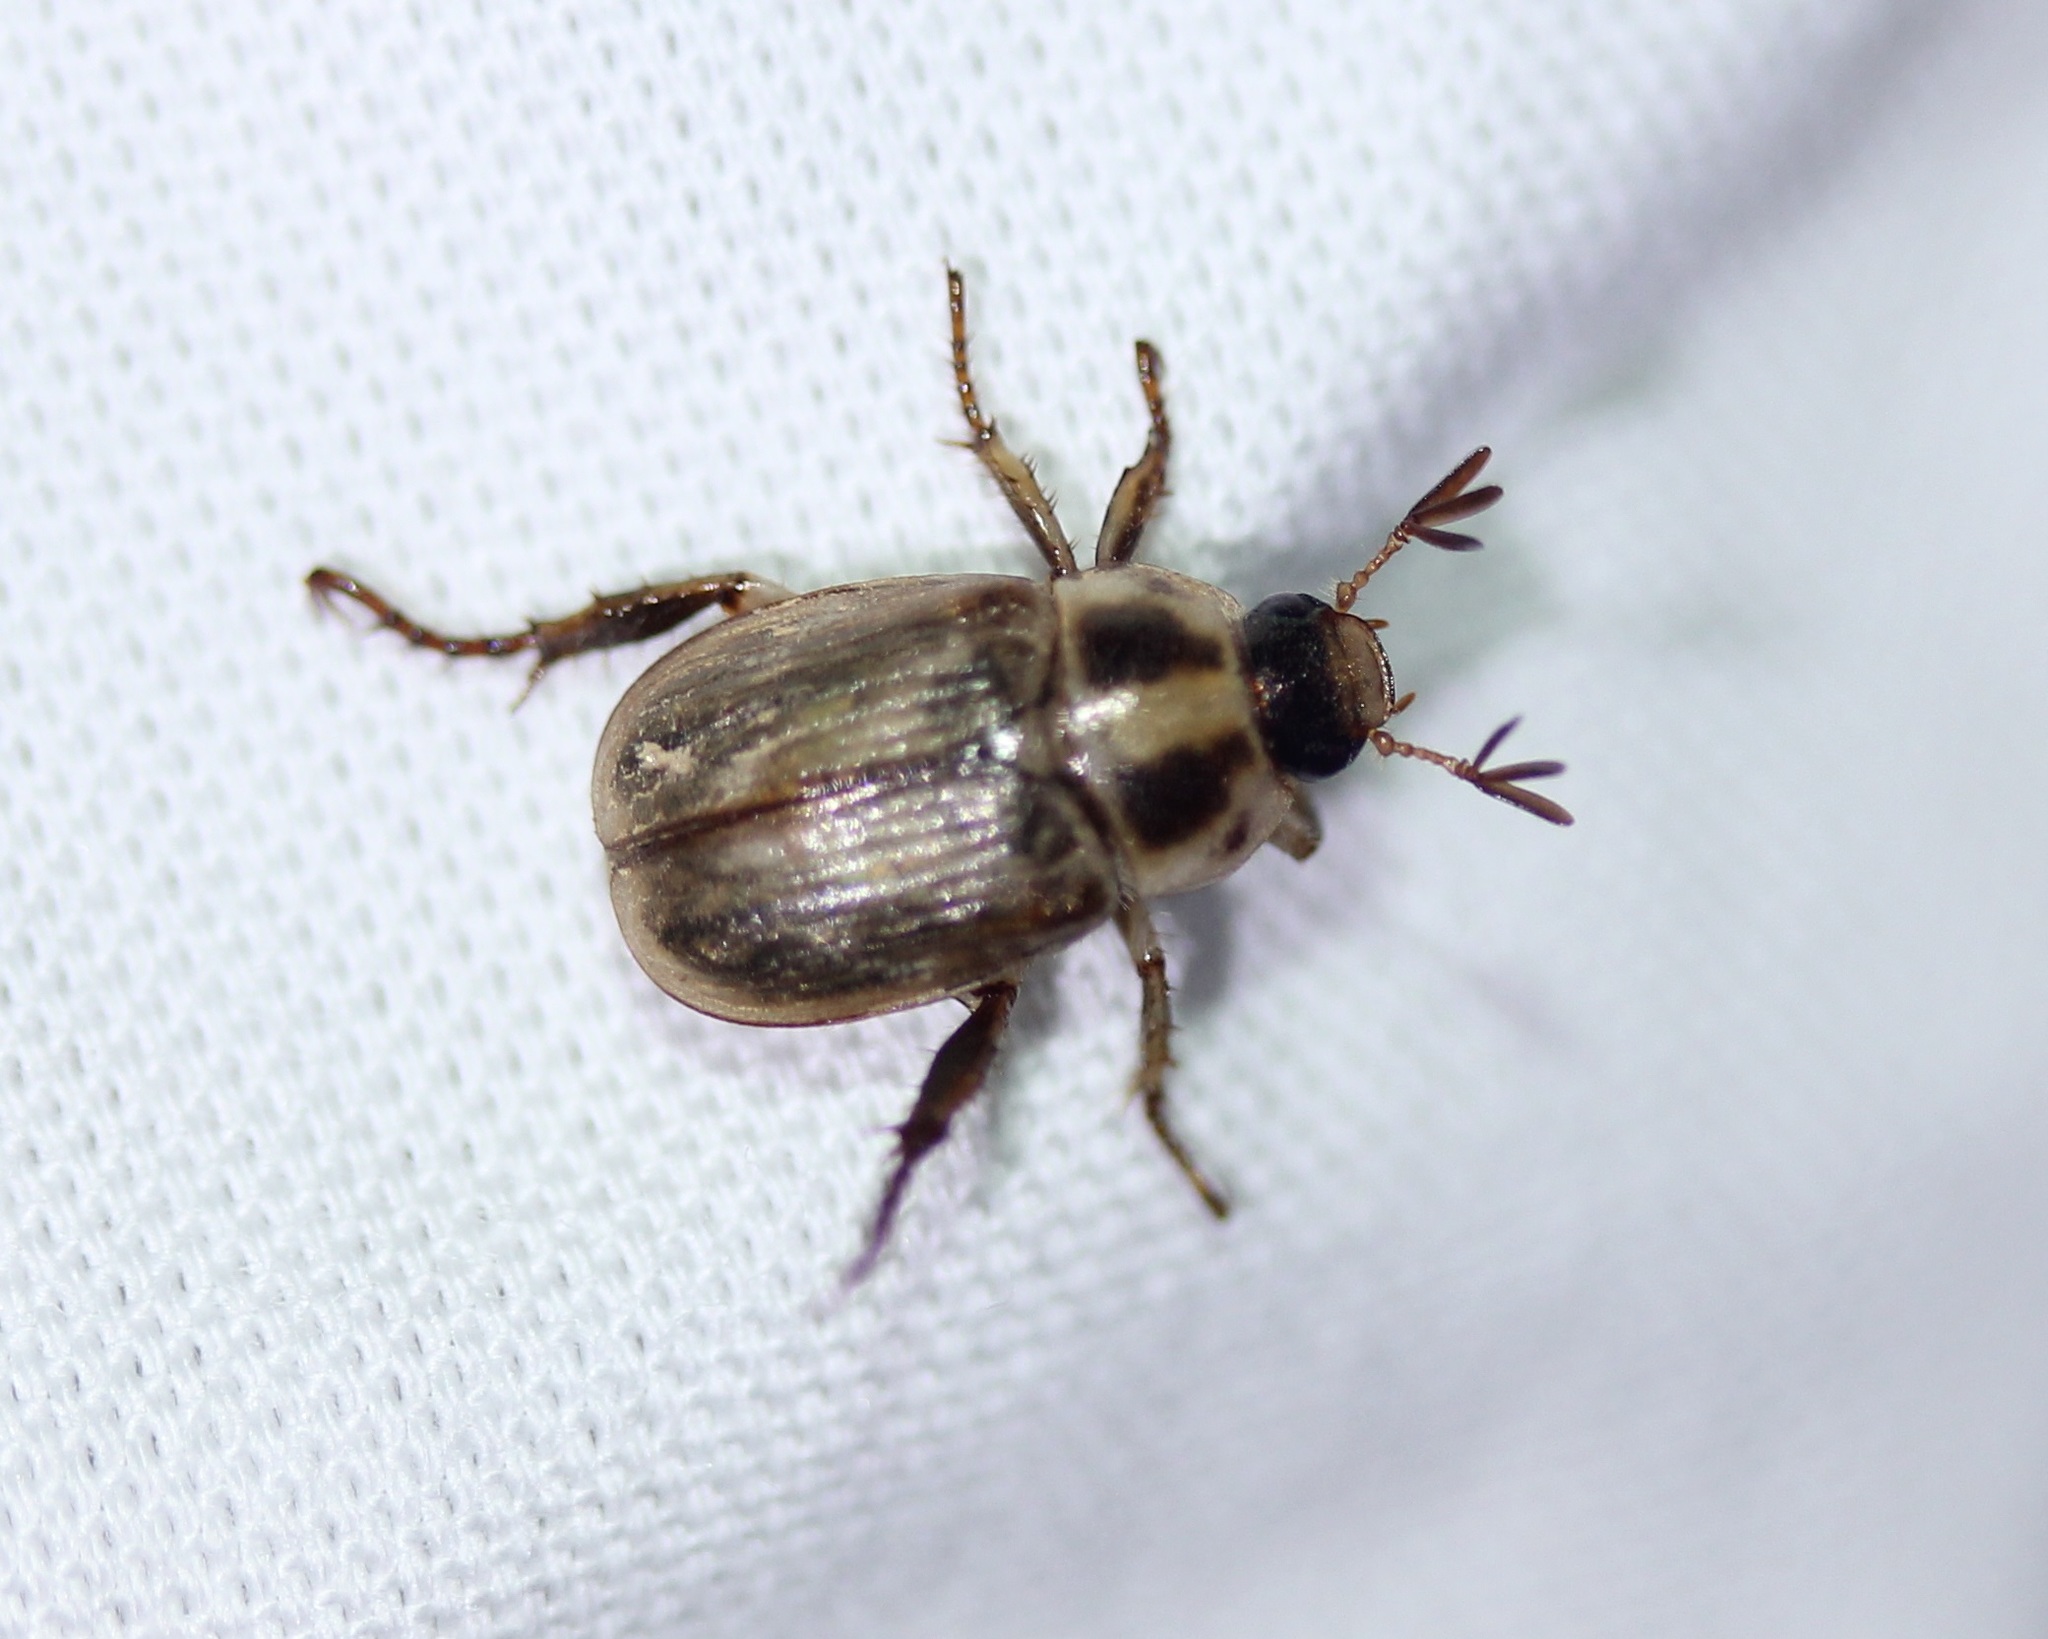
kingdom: Animalia
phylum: Arthropoda
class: Insecta
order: Coleoptera
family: Scarabaeidae
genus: Exomala
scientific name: Exomala orientalis
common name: Oriental beetle
